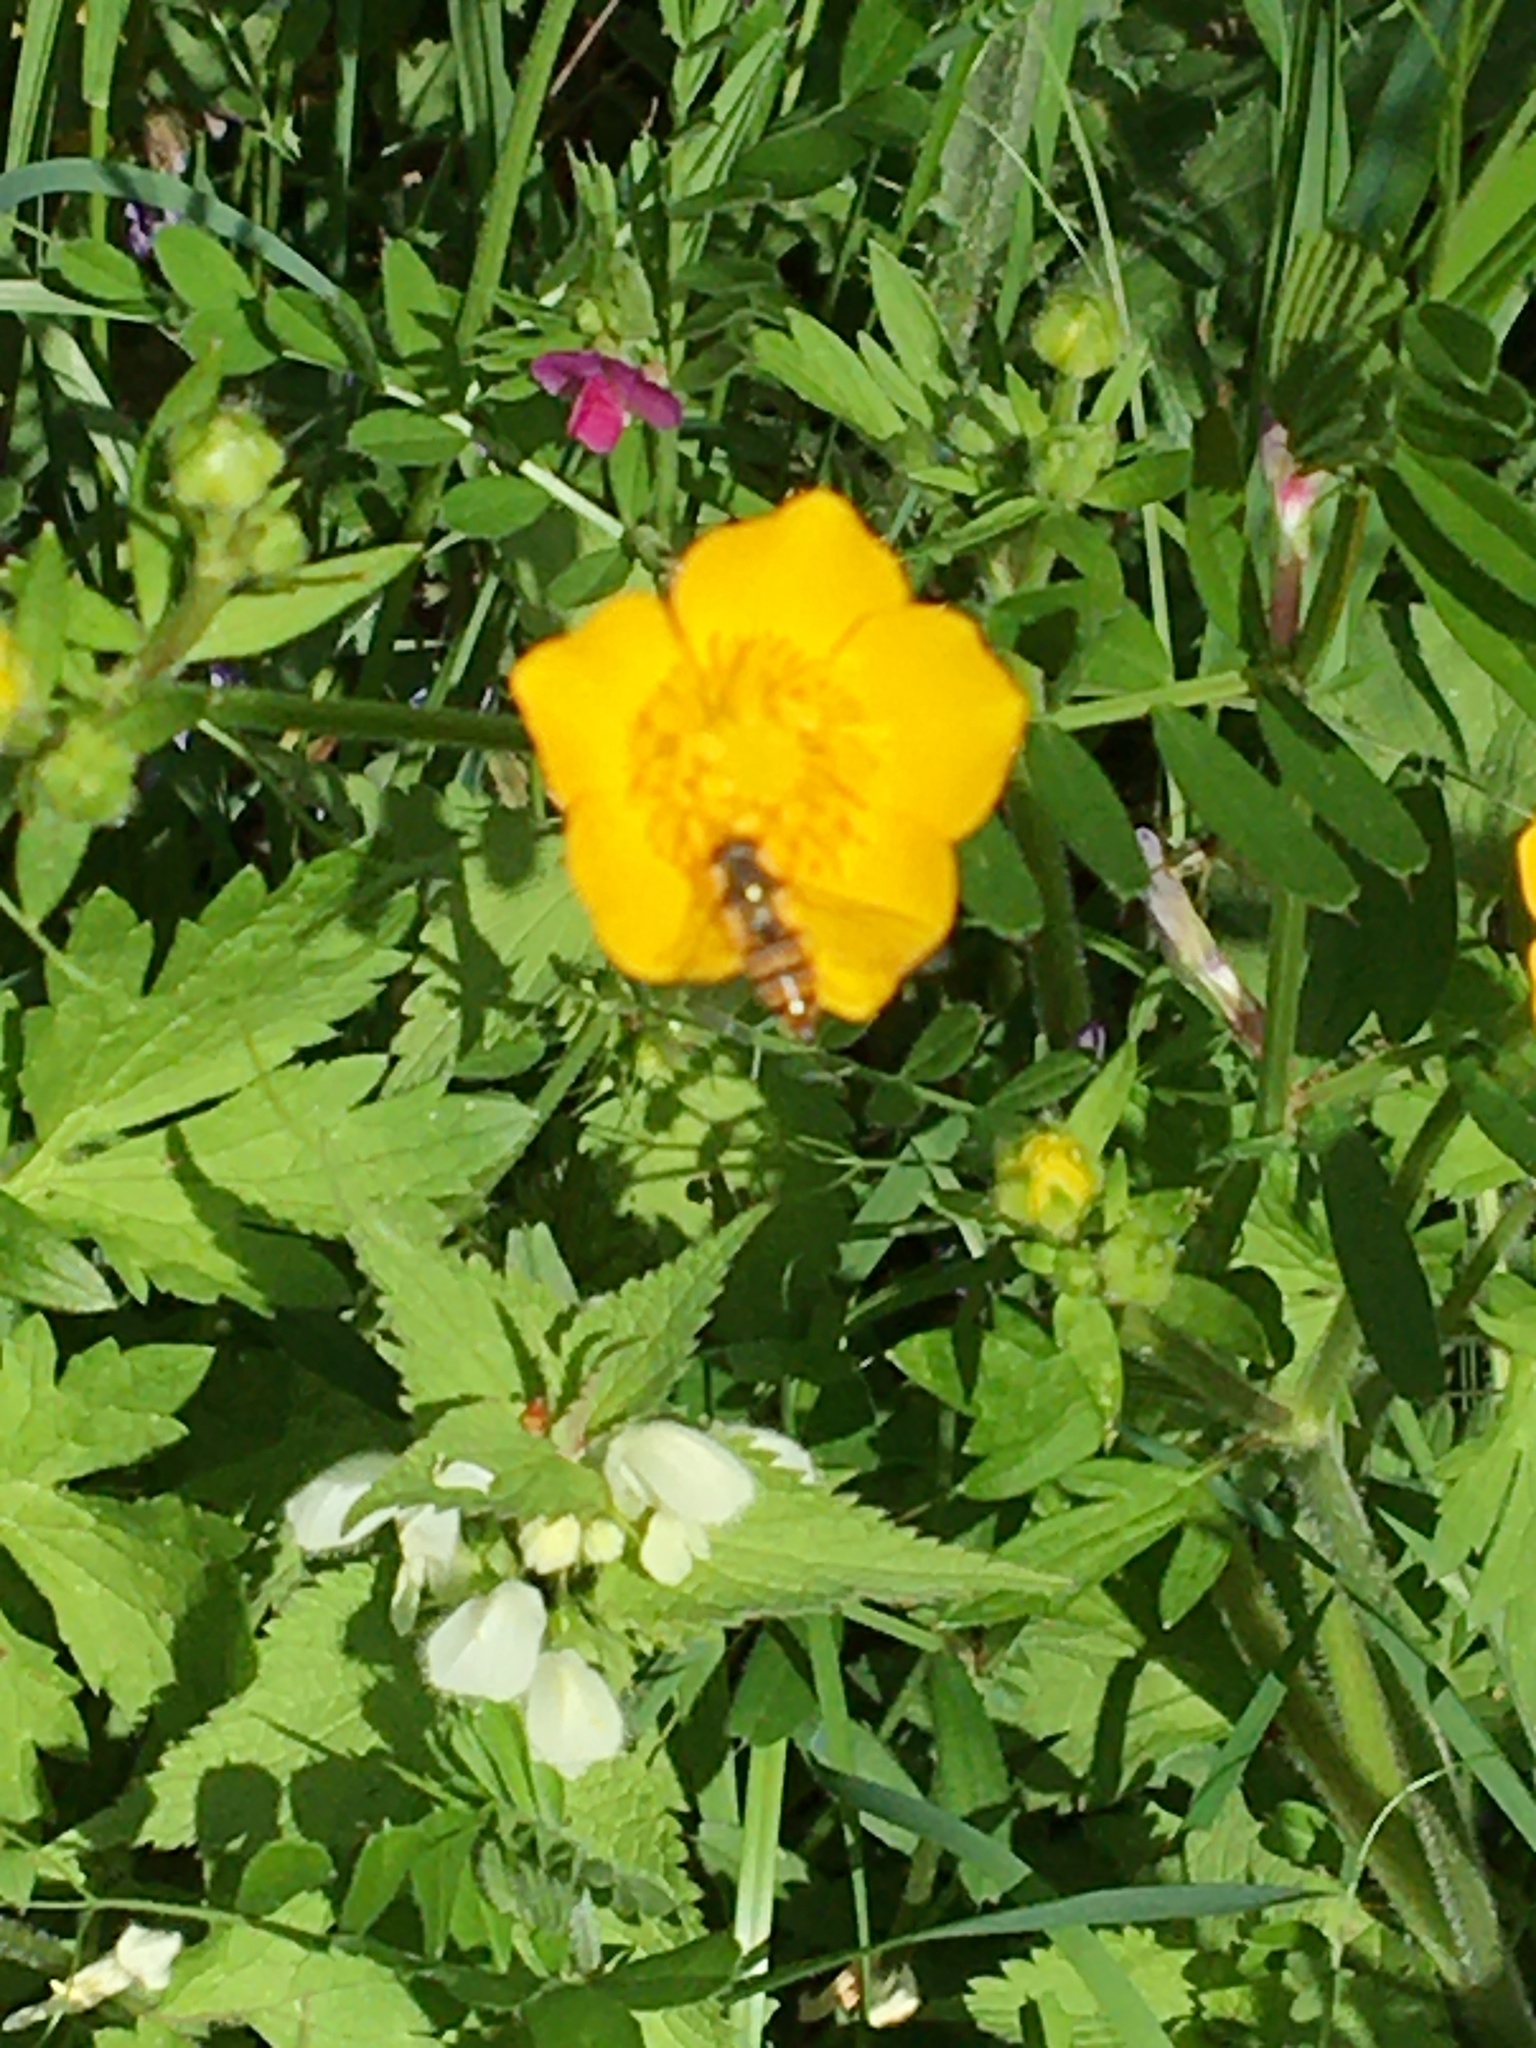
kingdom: Animalia
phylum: Arthropoda
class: Insecta
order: Diptera
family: Syrphidae
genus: Episyrphus
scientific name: Episyrphus balteatus
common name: Marmalade hoverfly
